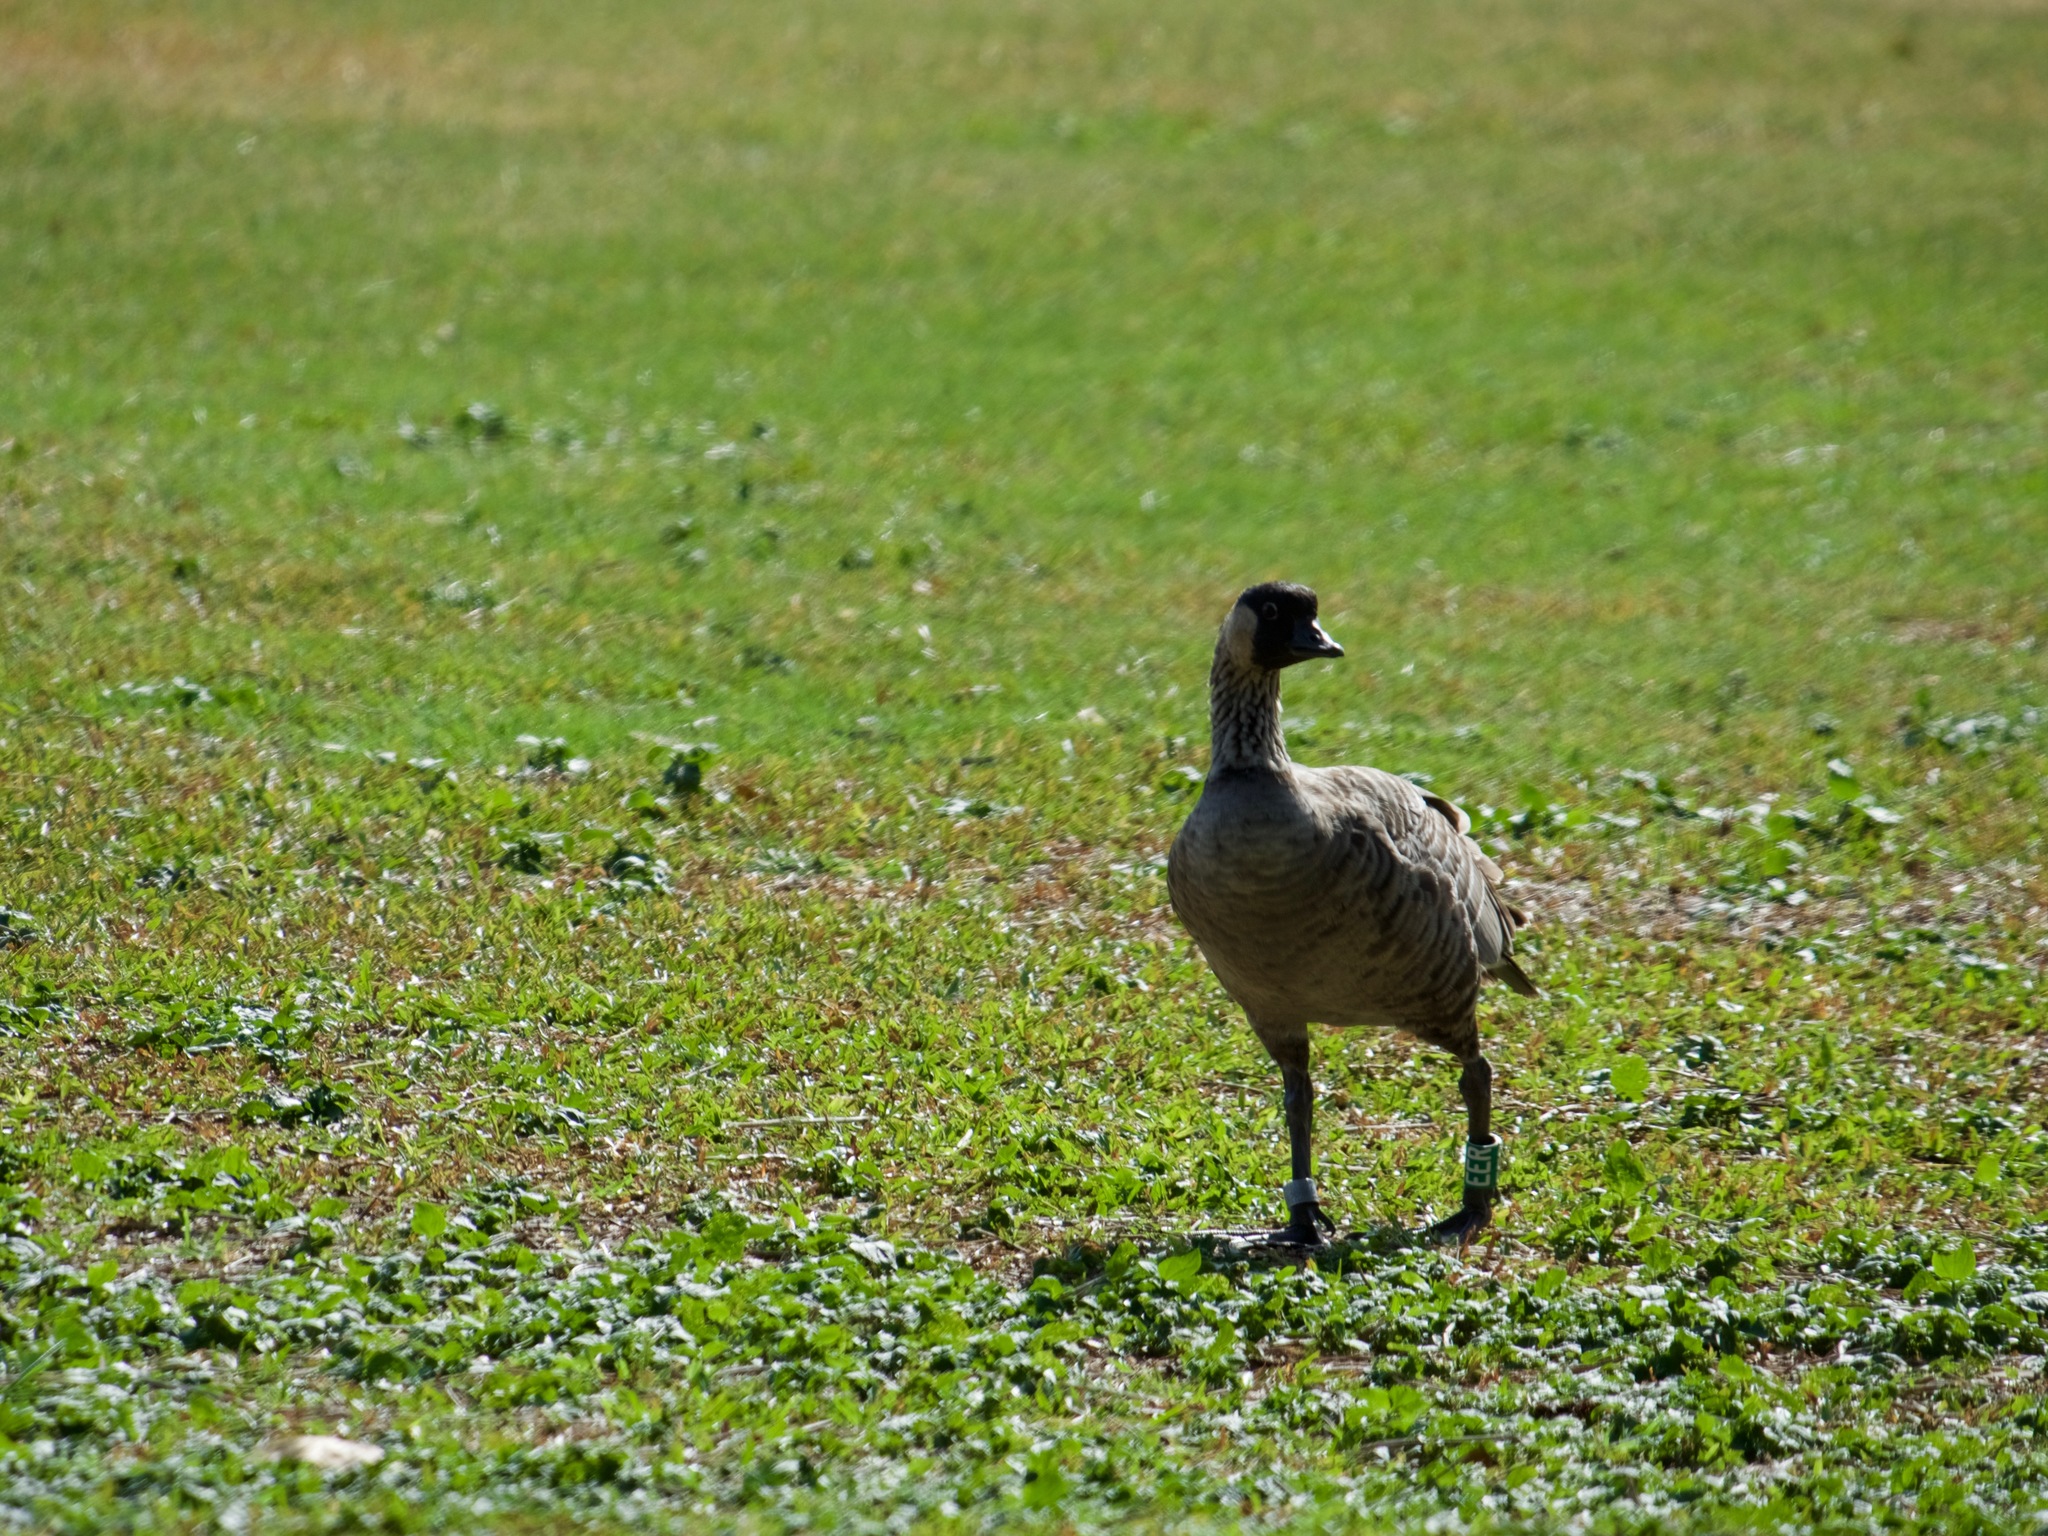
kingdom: Animalia
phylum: Chordata
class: Aves
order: Anseriformes
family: Anatidae
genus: Branta
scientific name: Branta sandvicensis
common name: Nene
